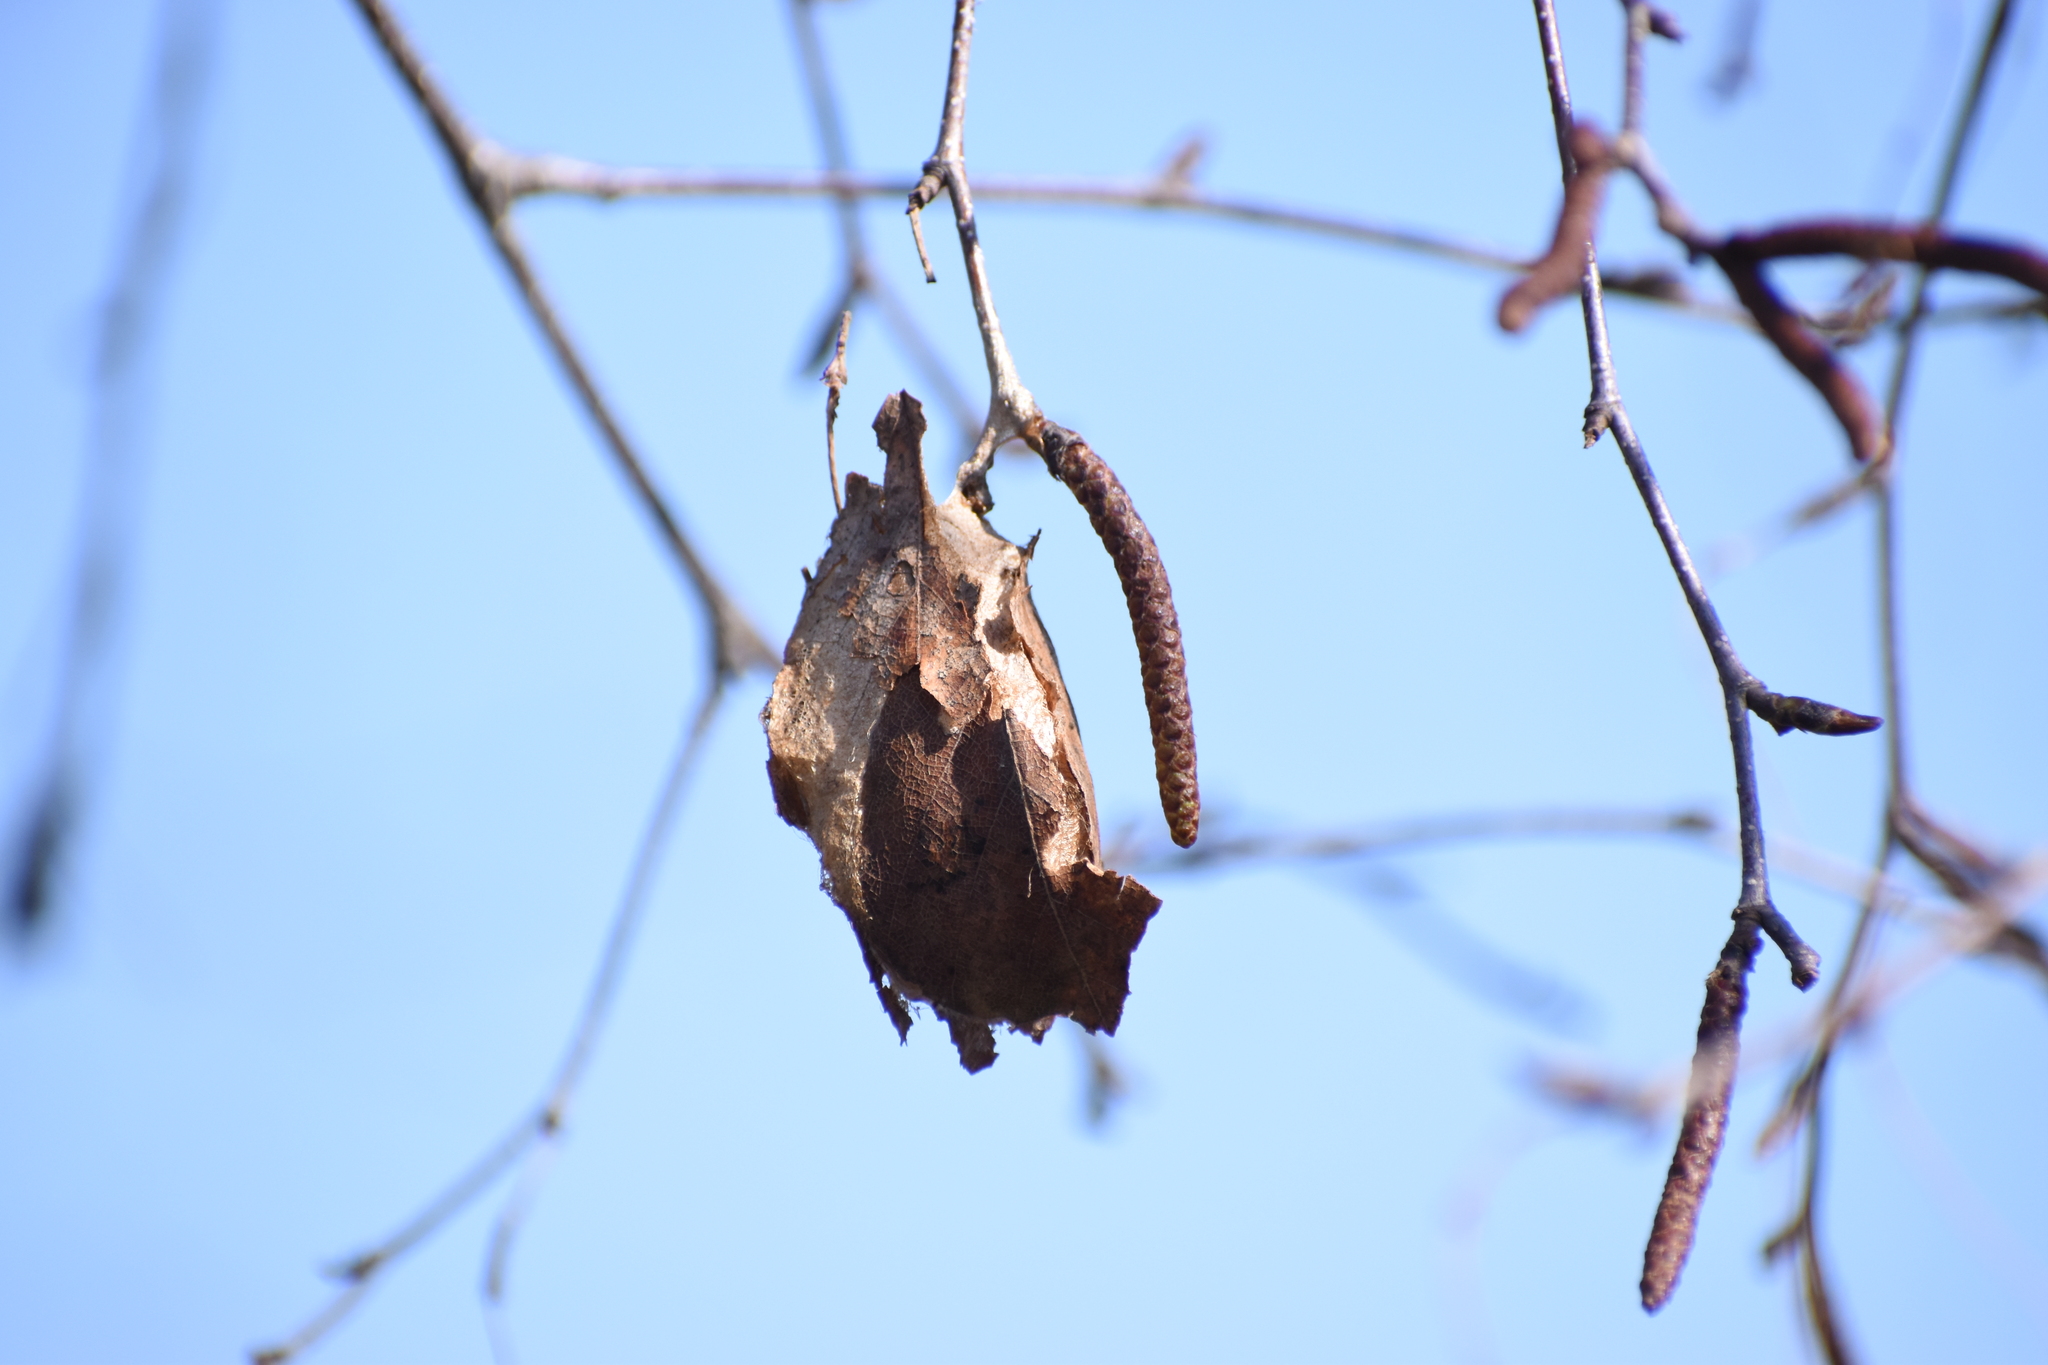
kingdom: Animalia
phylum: Arthropoda
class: Insecta
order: Lepidoptera
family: Saturniidae
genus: Antheraea
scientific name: Antheraea polyphemus
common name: Polyphemus moth
